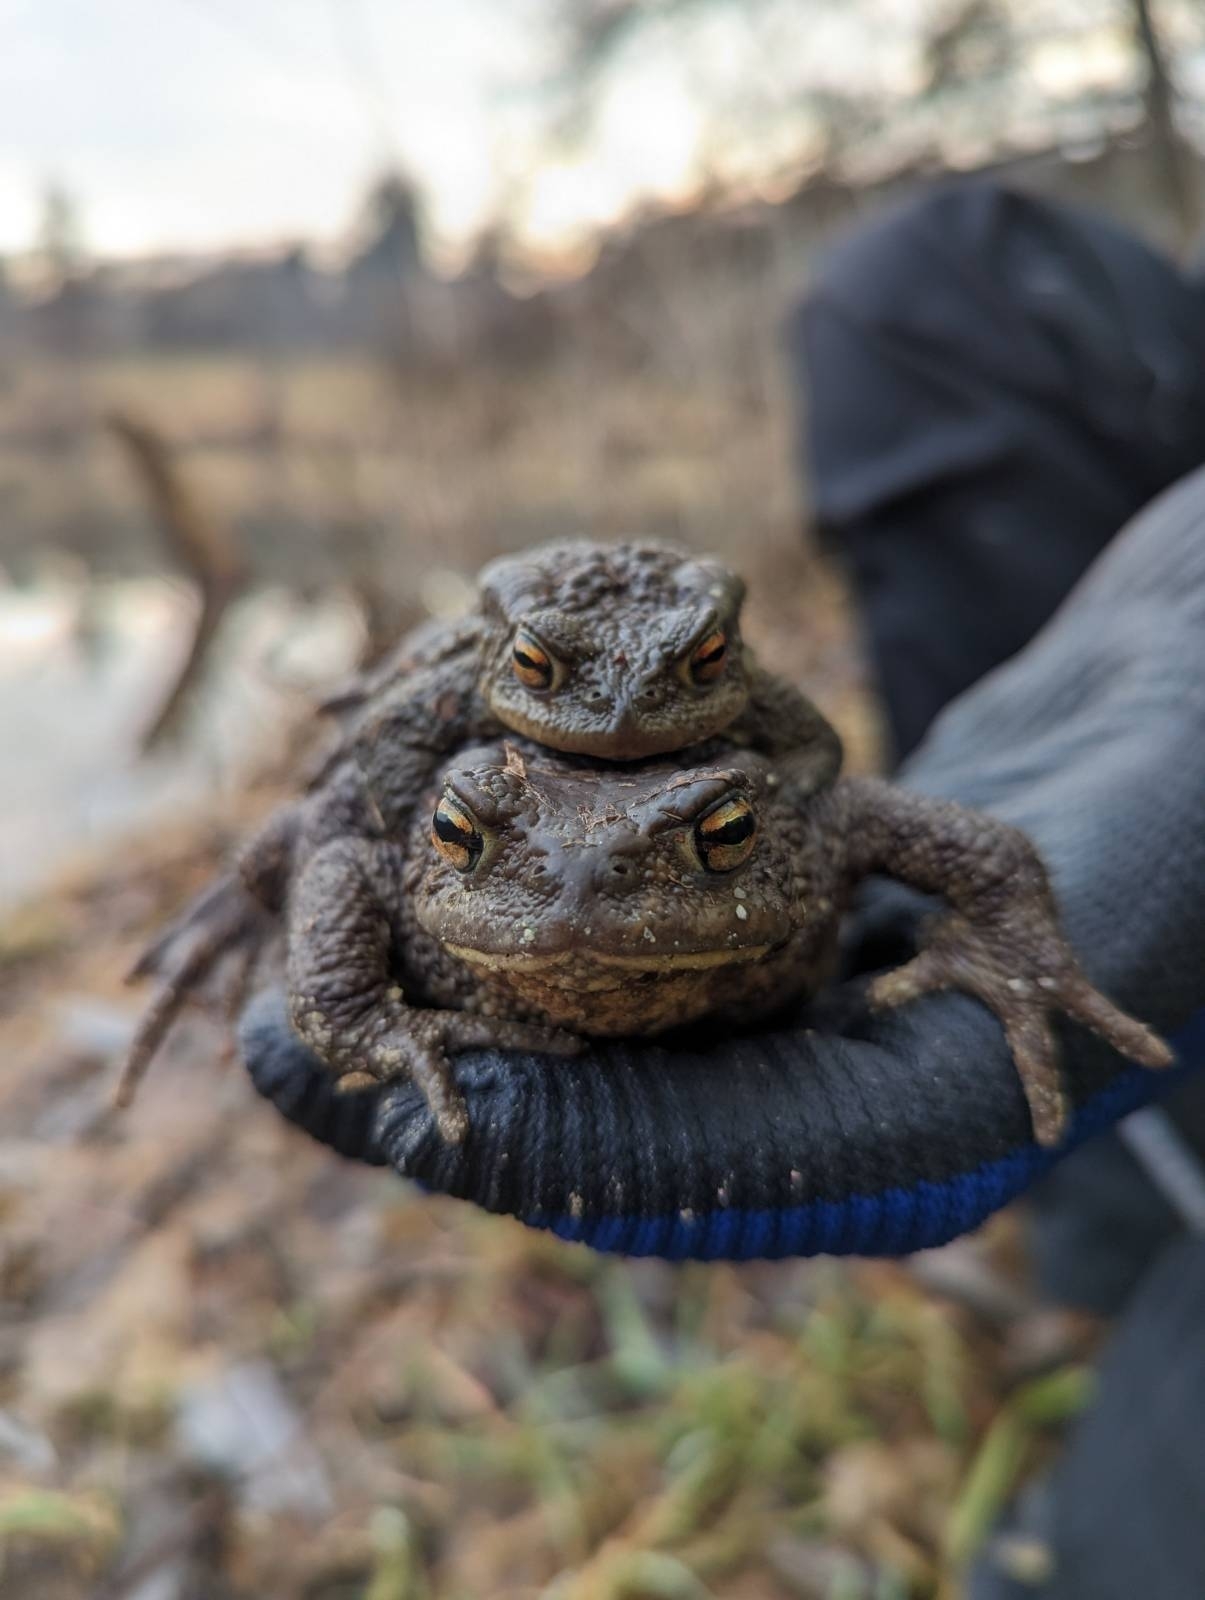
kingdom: Animalia
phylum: Chordata
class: Amphibia
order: Anura
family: Bufonidae
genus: Bufo
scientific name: Bufo bufo
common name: Common toad
